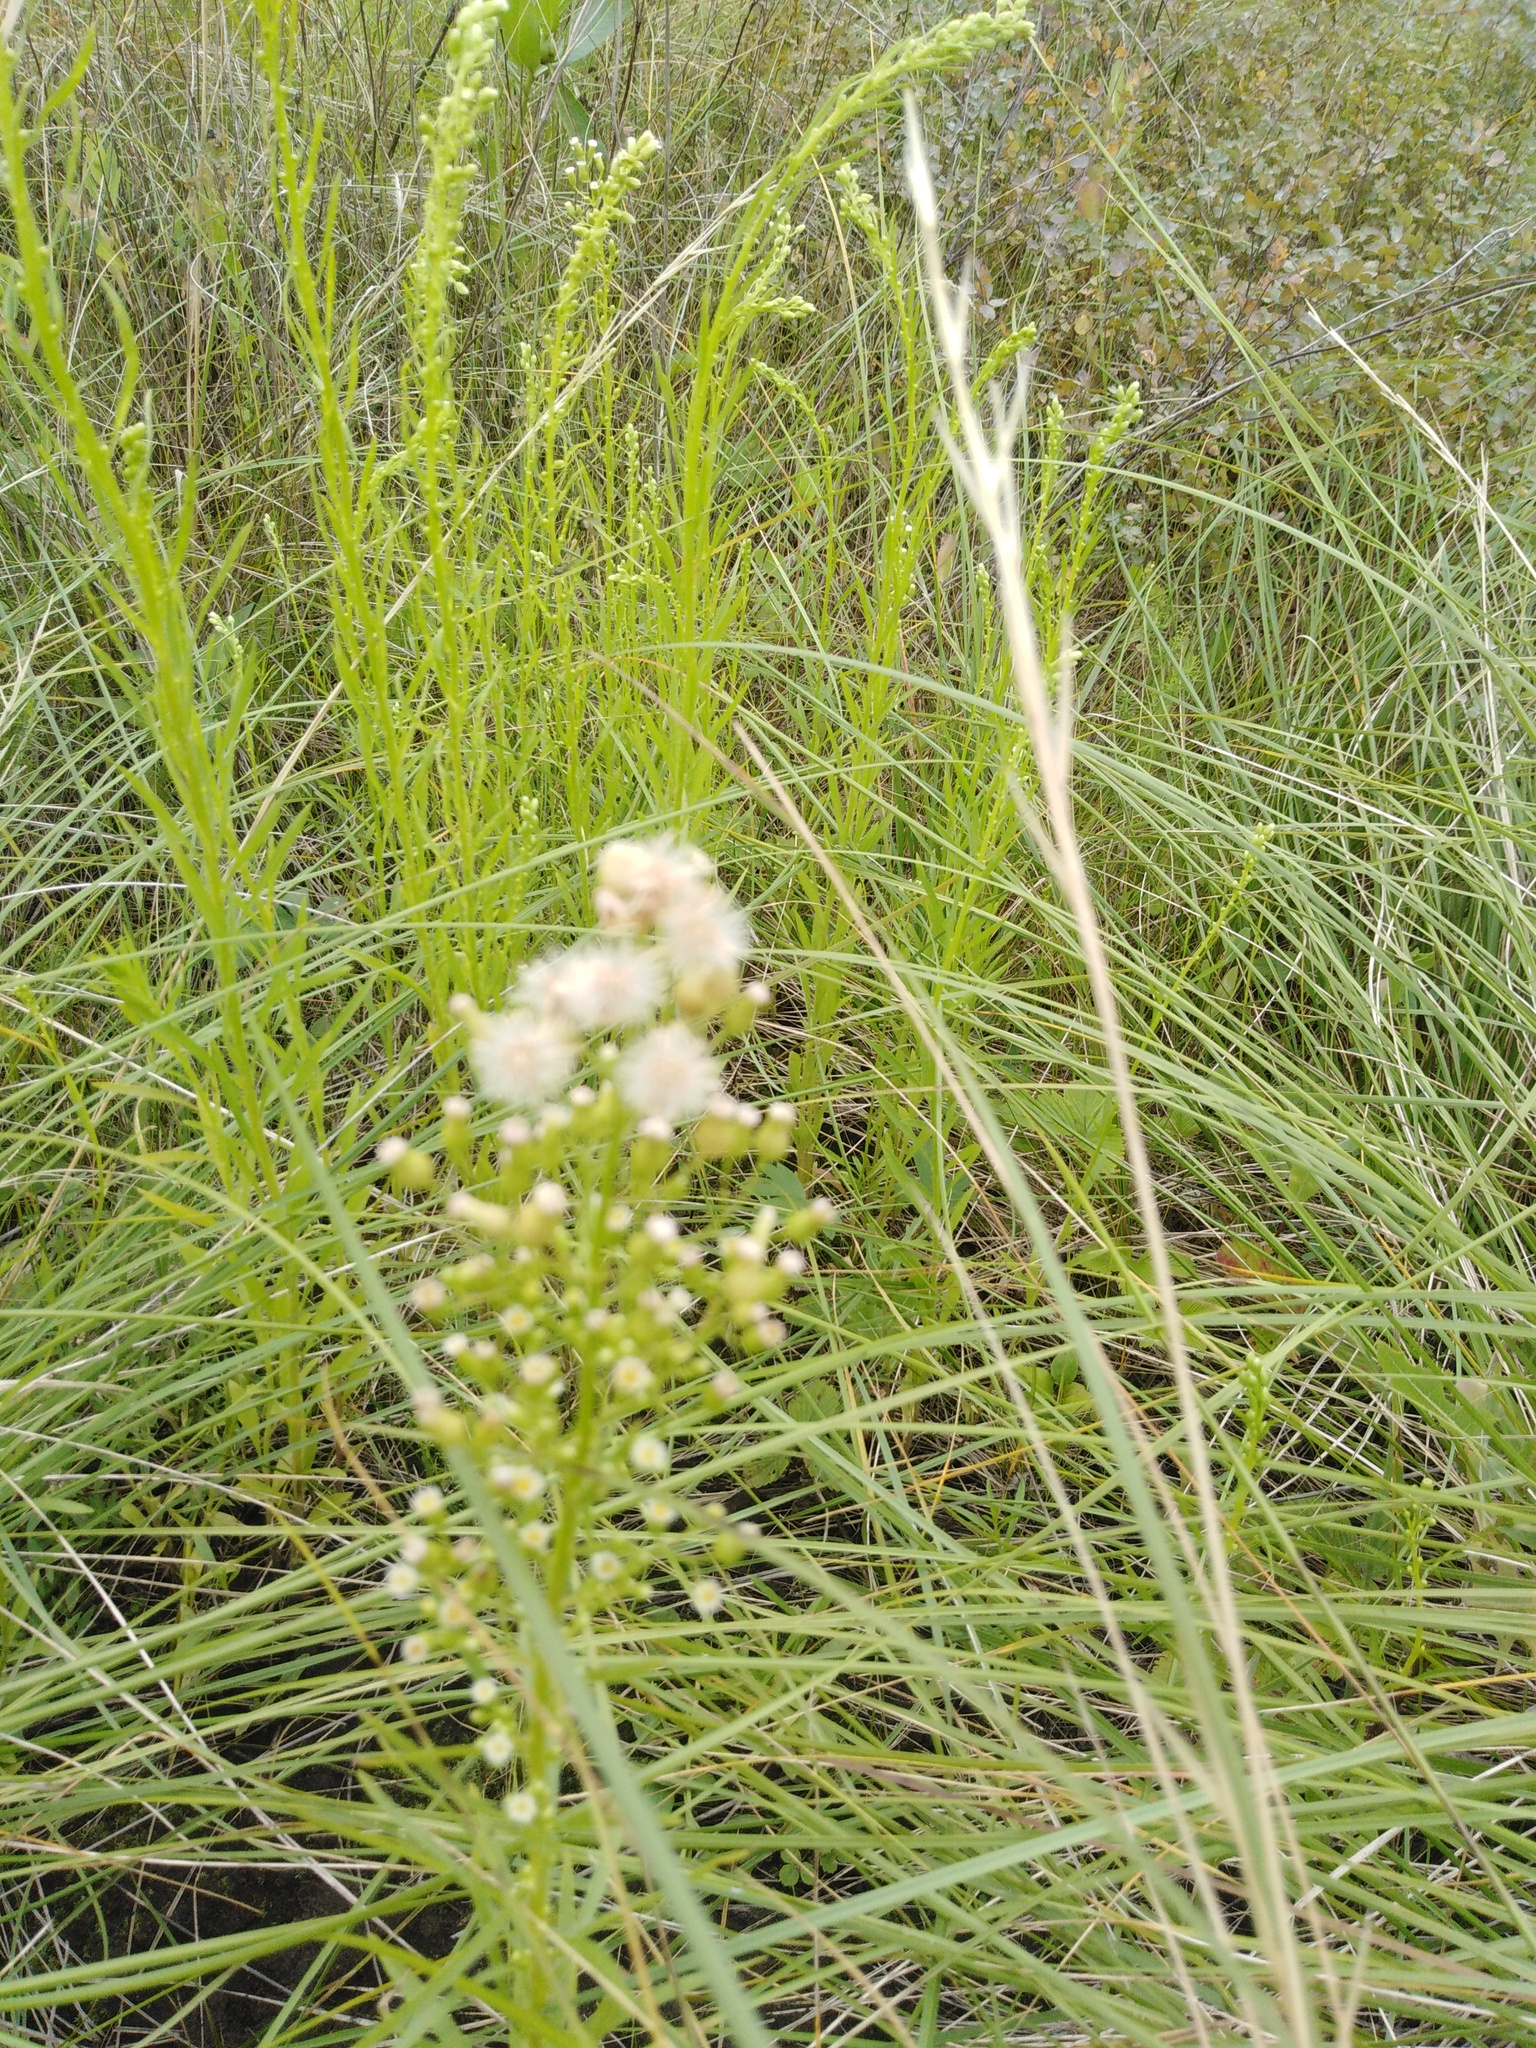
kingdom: Plantae
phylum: Tracheophyta
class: Magnoliopsida
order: Asterales
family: Asteraceae
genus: Erigeron
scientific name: Erigeron canadensis
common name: Canadian fleabane
